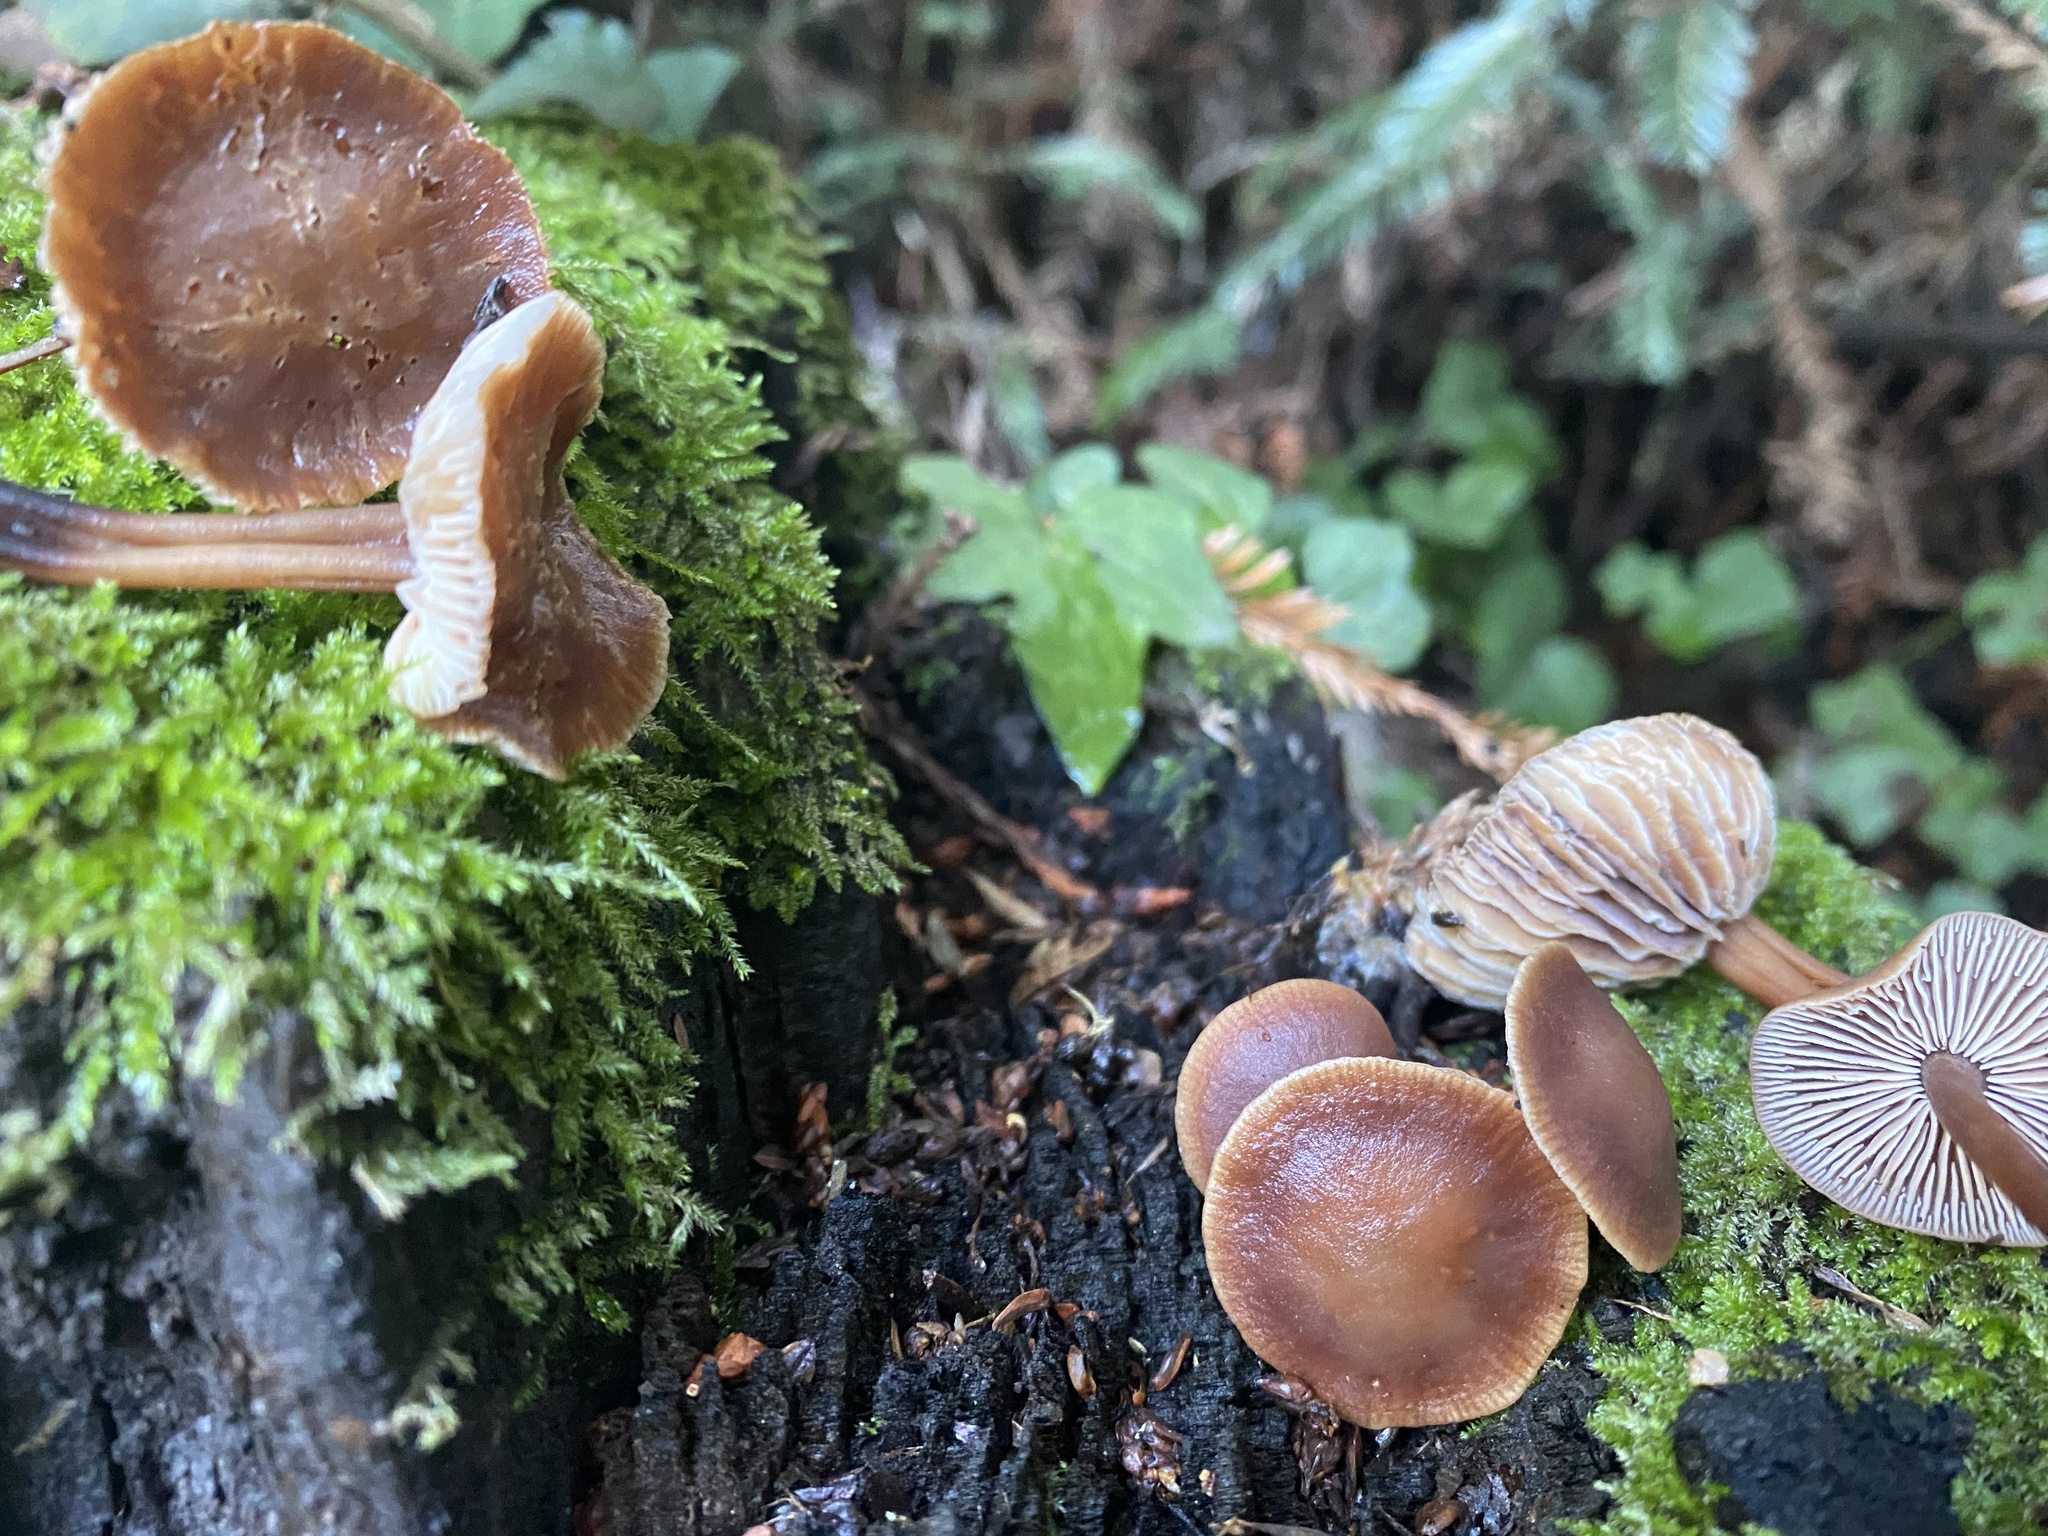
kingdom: Fungi
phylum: Basidiomycota
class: Agaricomycetes
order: Agaricales
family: Omphalotaceae
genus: Gymnopus
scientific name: Gymnopus brassicolens
